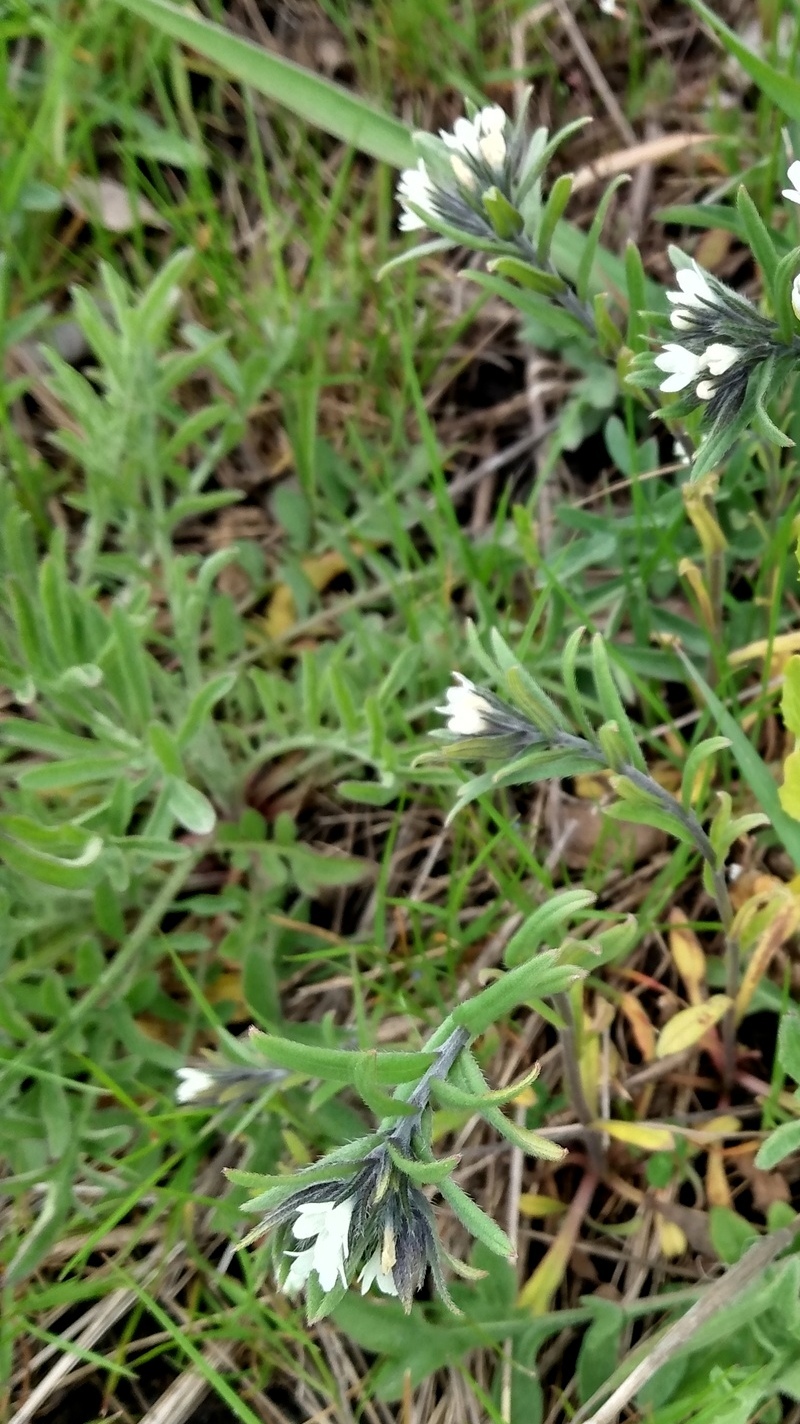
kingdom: Plantae
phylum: Tracheophyta
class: Magnoliopsida
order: Brassicales
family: Brassicaceae
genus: Berteroa
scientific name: Berteroa incana
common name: Hoary alison
